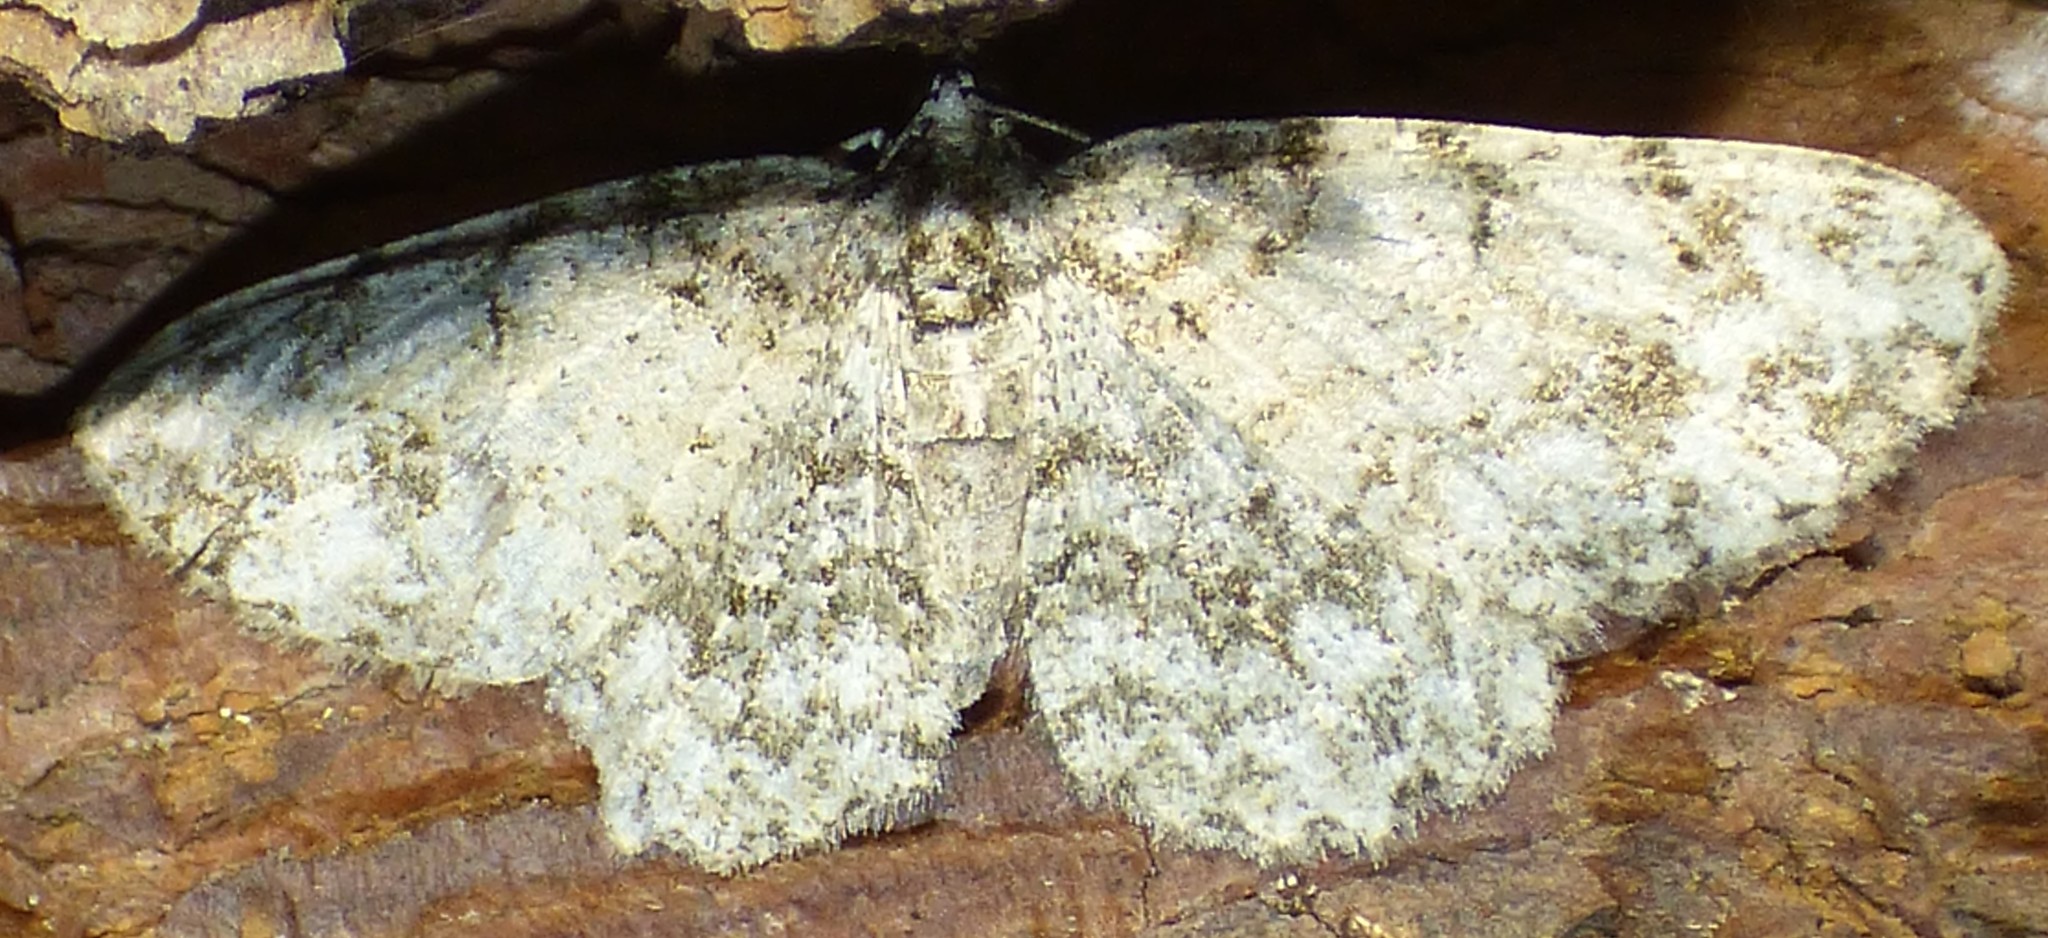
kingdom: Animalia
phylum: Arthropoda
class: Insecta
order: Lepidoptera
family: Geometridae
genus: Protoboarmia
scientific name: Protoboarmia porcelaria
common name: Porcelain gray
